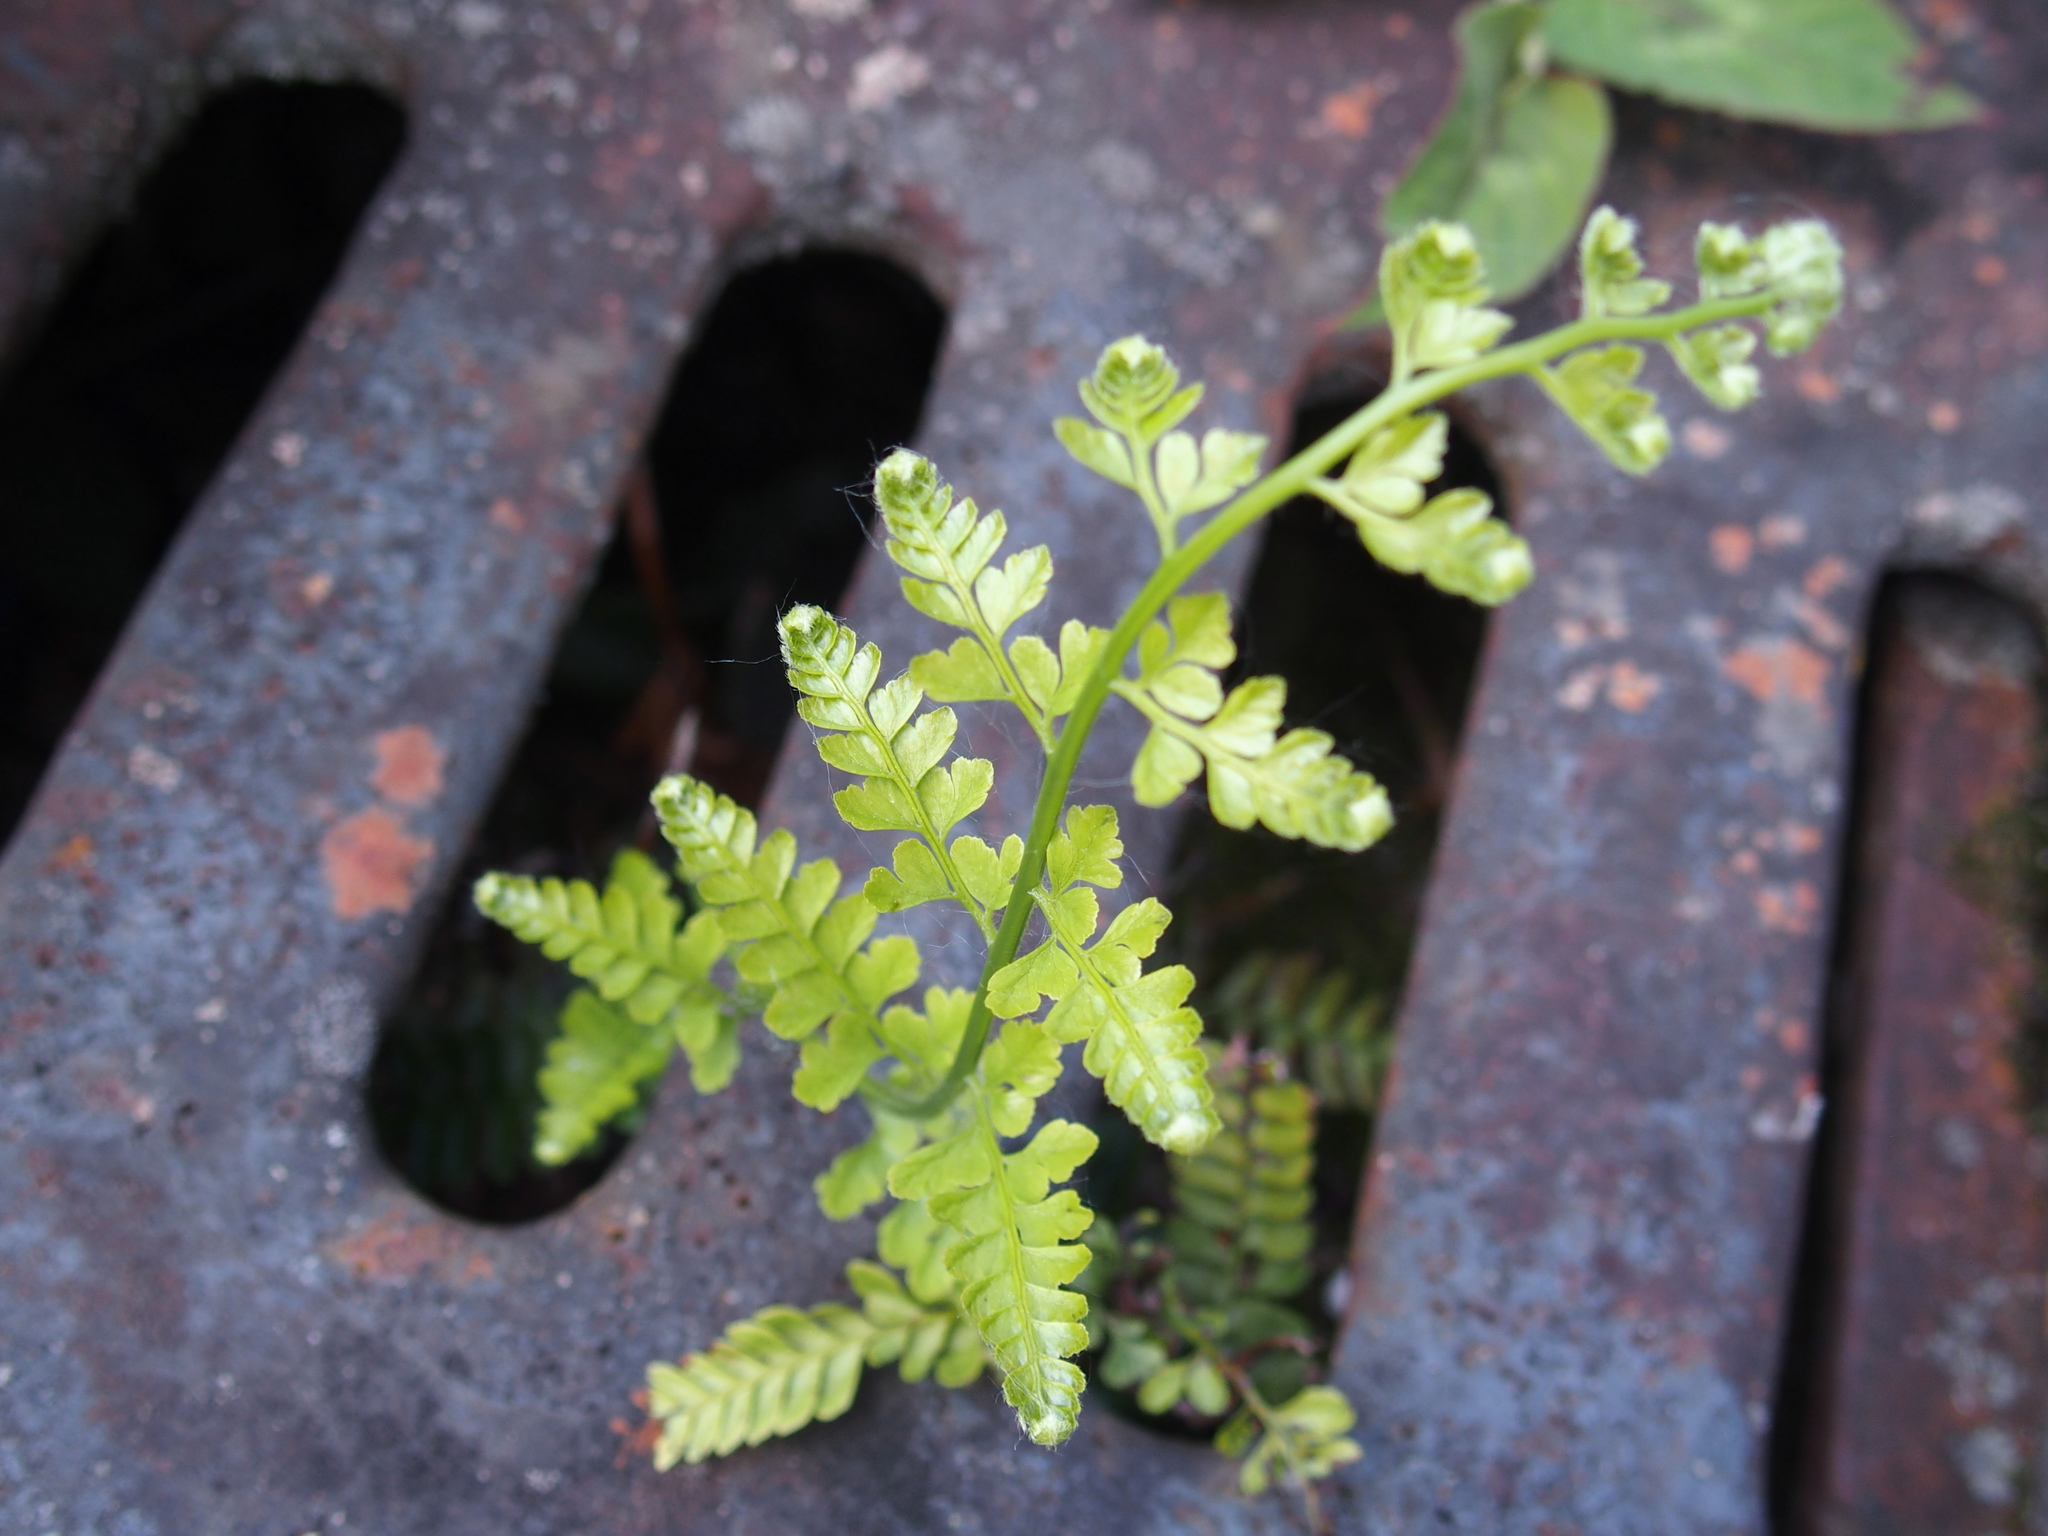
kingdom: Plantae
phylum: Tracheophyta
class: Polypodiopsida
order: Polypodiales
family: Dennstaedtiaceae
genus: Microlepia
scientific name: Microlepia strigosa
